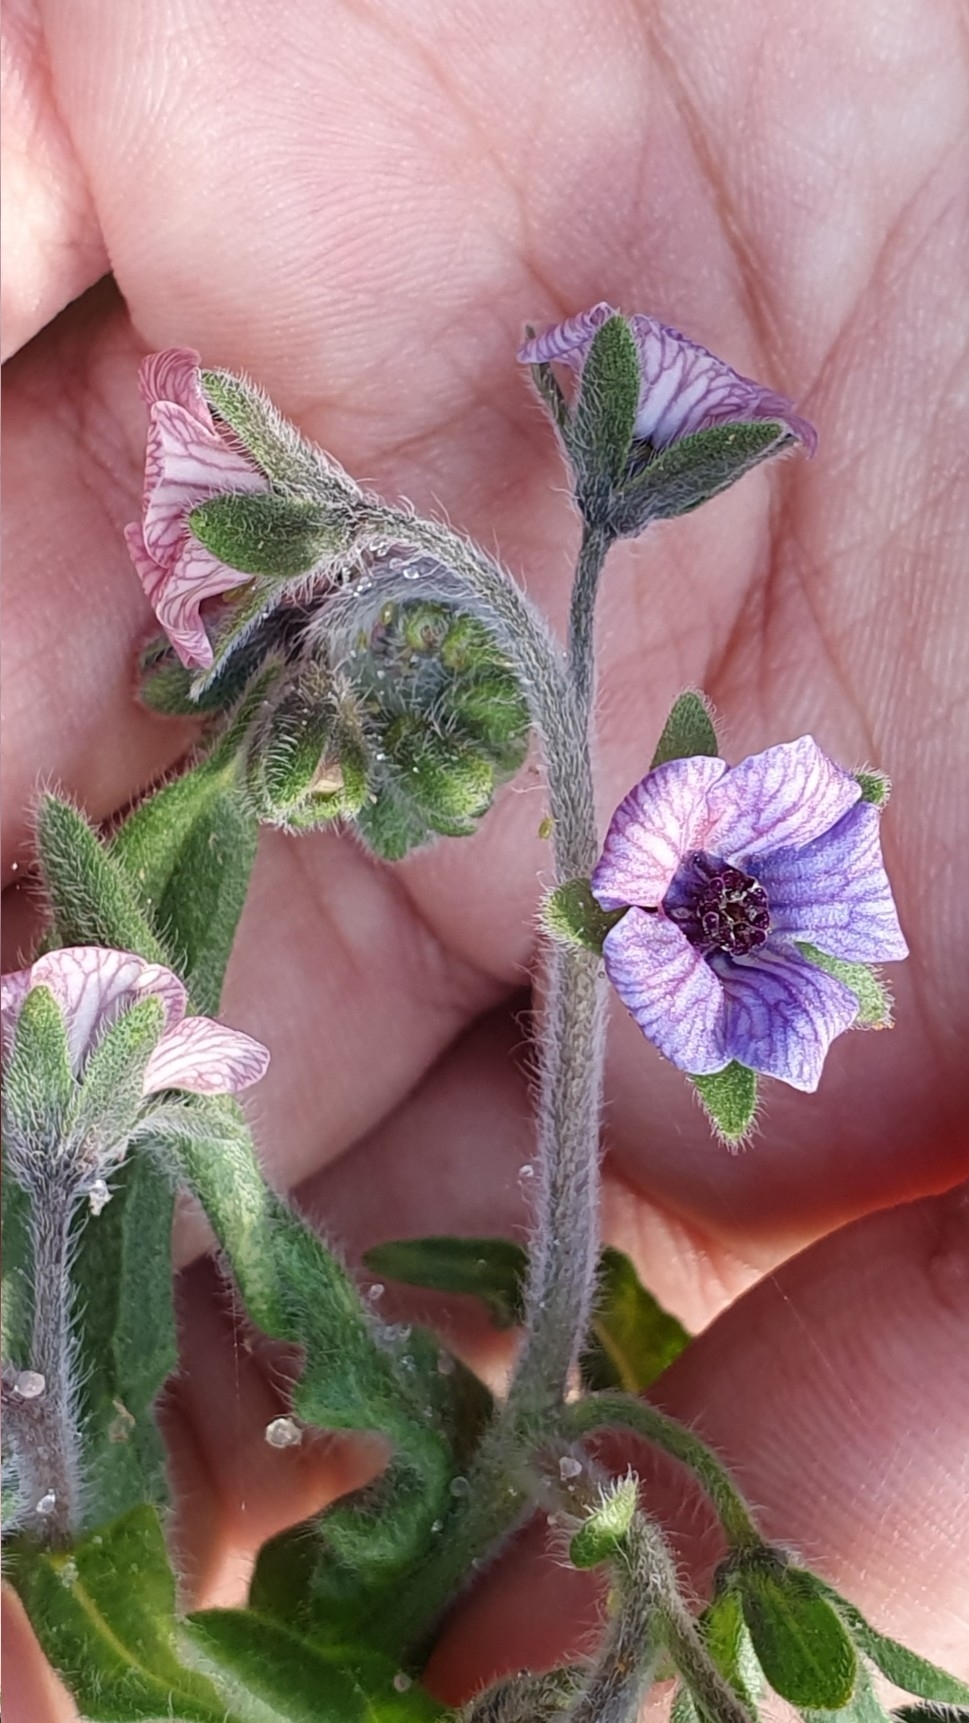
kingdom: Plantae
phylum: Tracheophyta
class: Magnoliopsida
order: Boraginales
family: Boraginaceae
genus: Cynoglossum
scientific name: Cynoglossum creticum
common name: Blue hound's tongue
